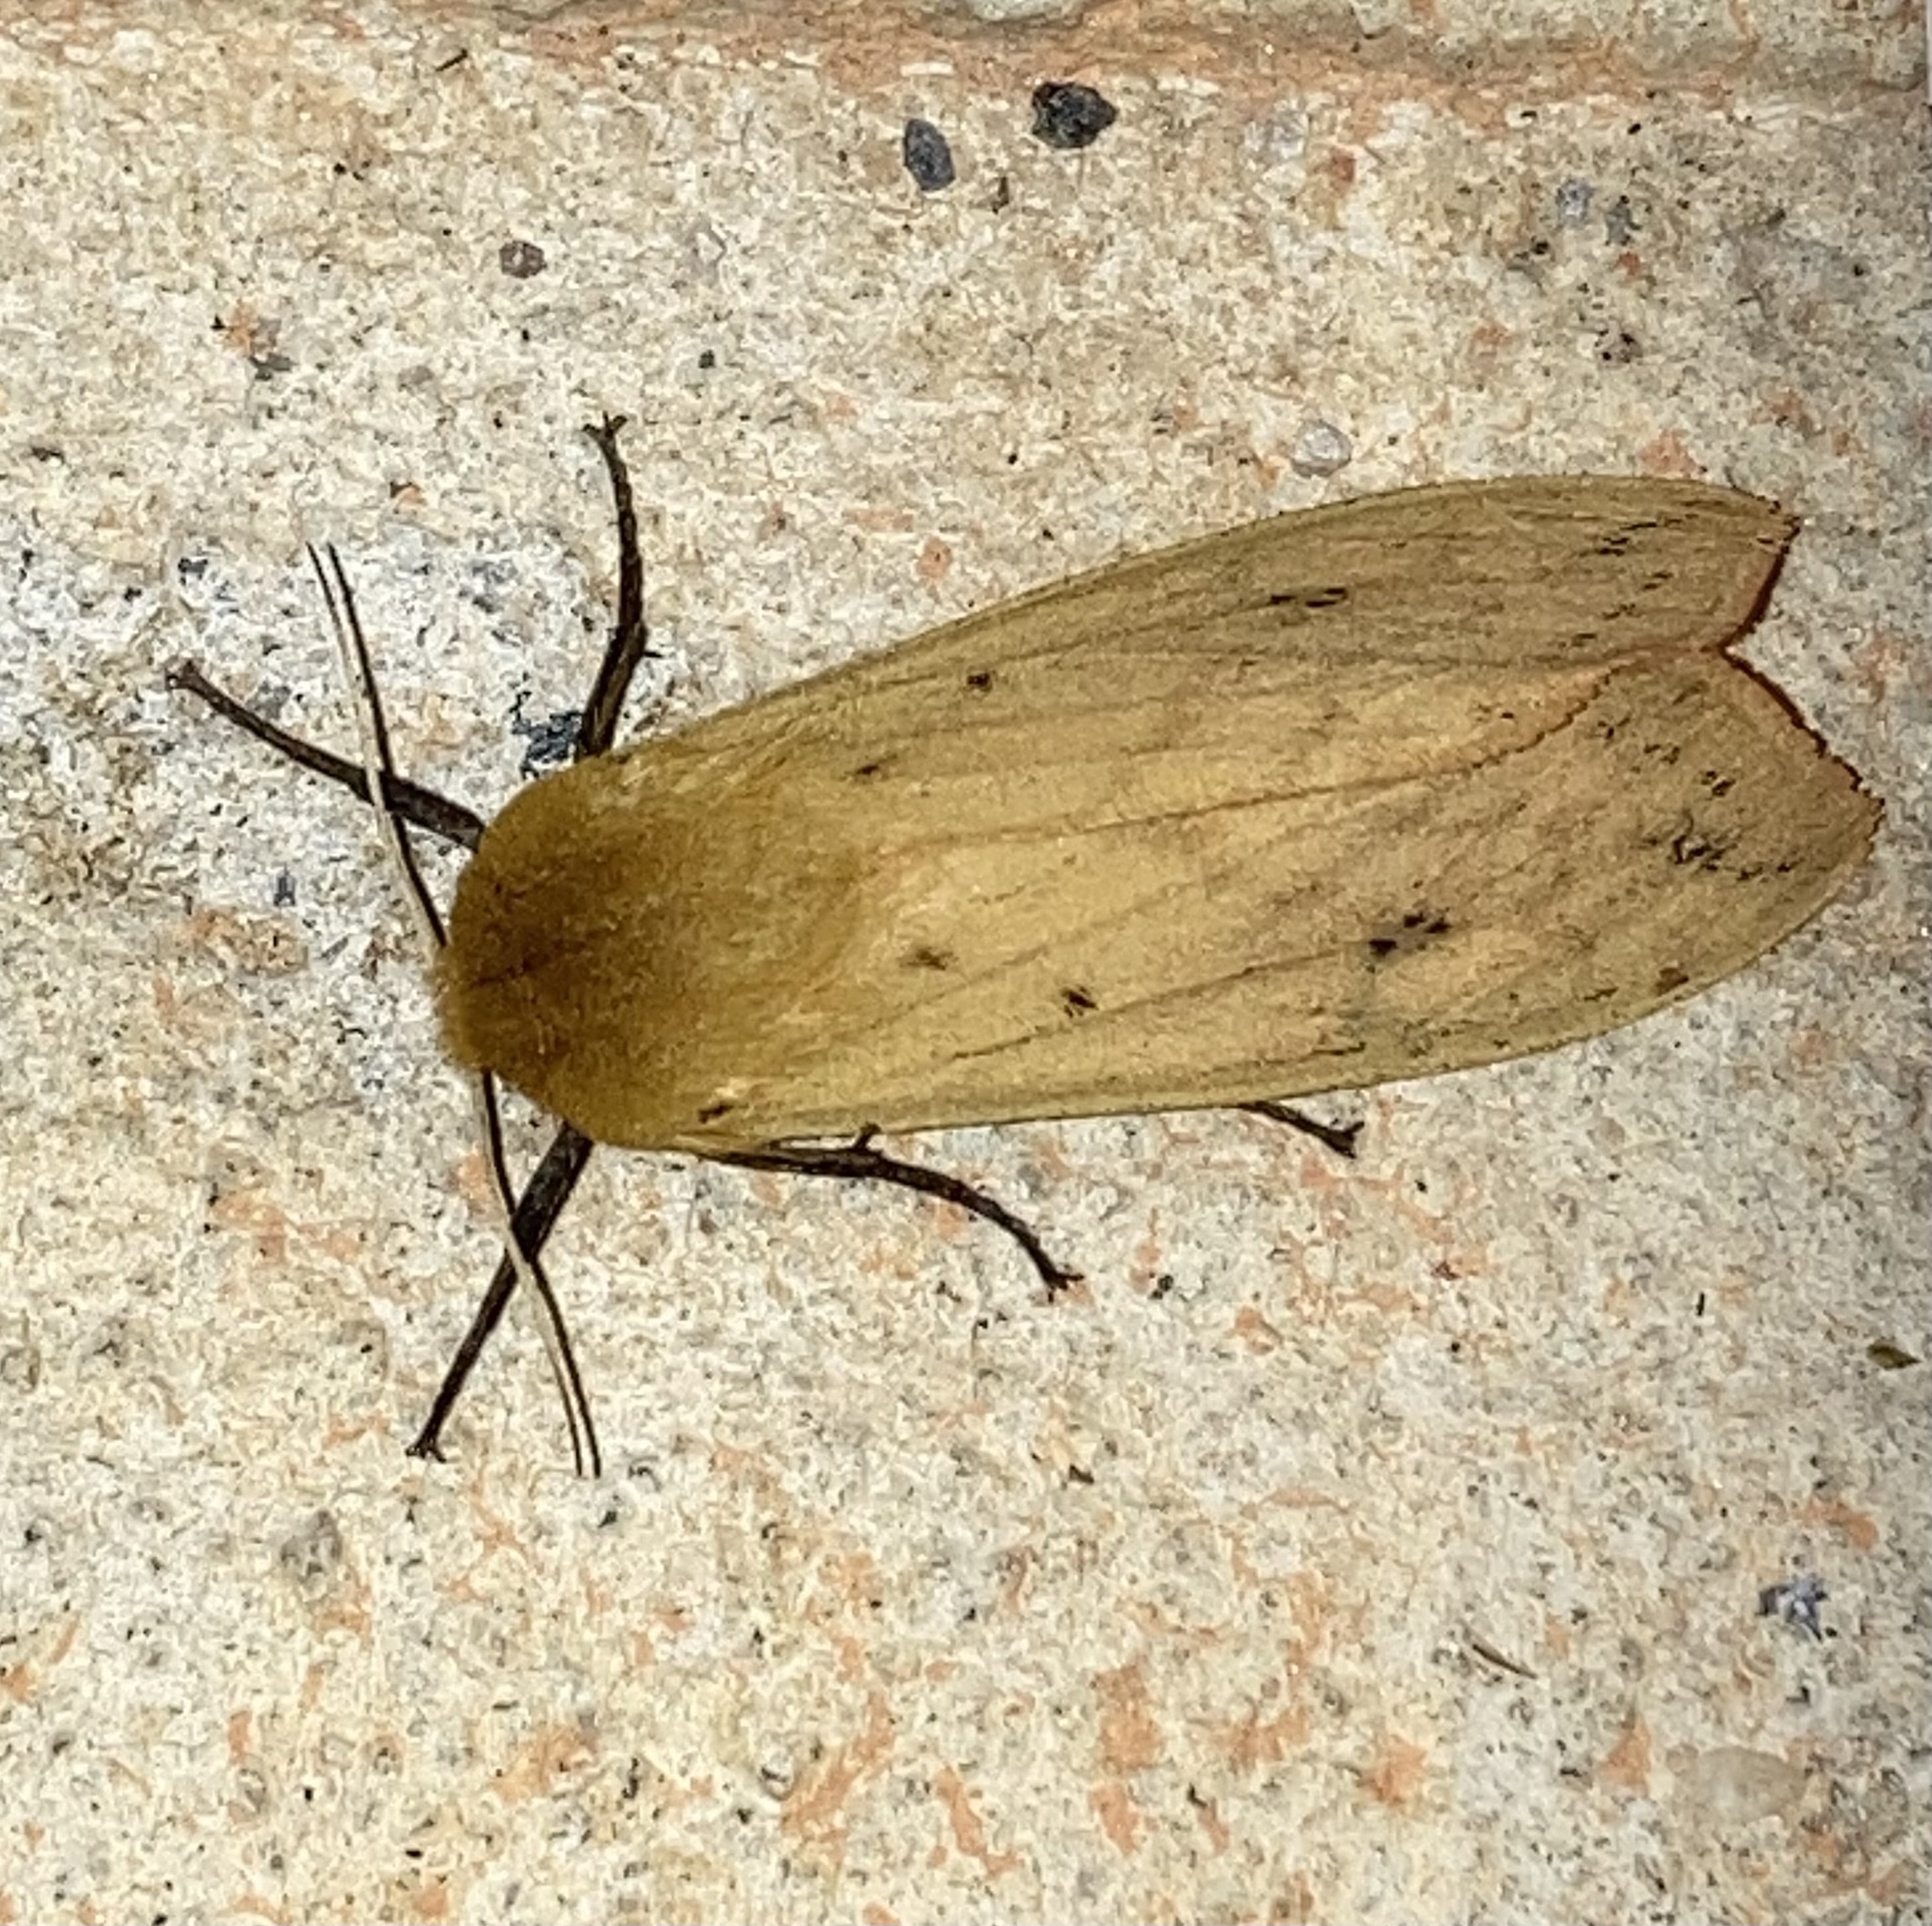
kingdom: Animalia
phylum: Arthropoda
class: Insecta
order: Lepidoptera
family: Erebidae
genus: Pyrrharctia
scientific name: Pyrrharctia isabella
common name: Isabella tiger moth
